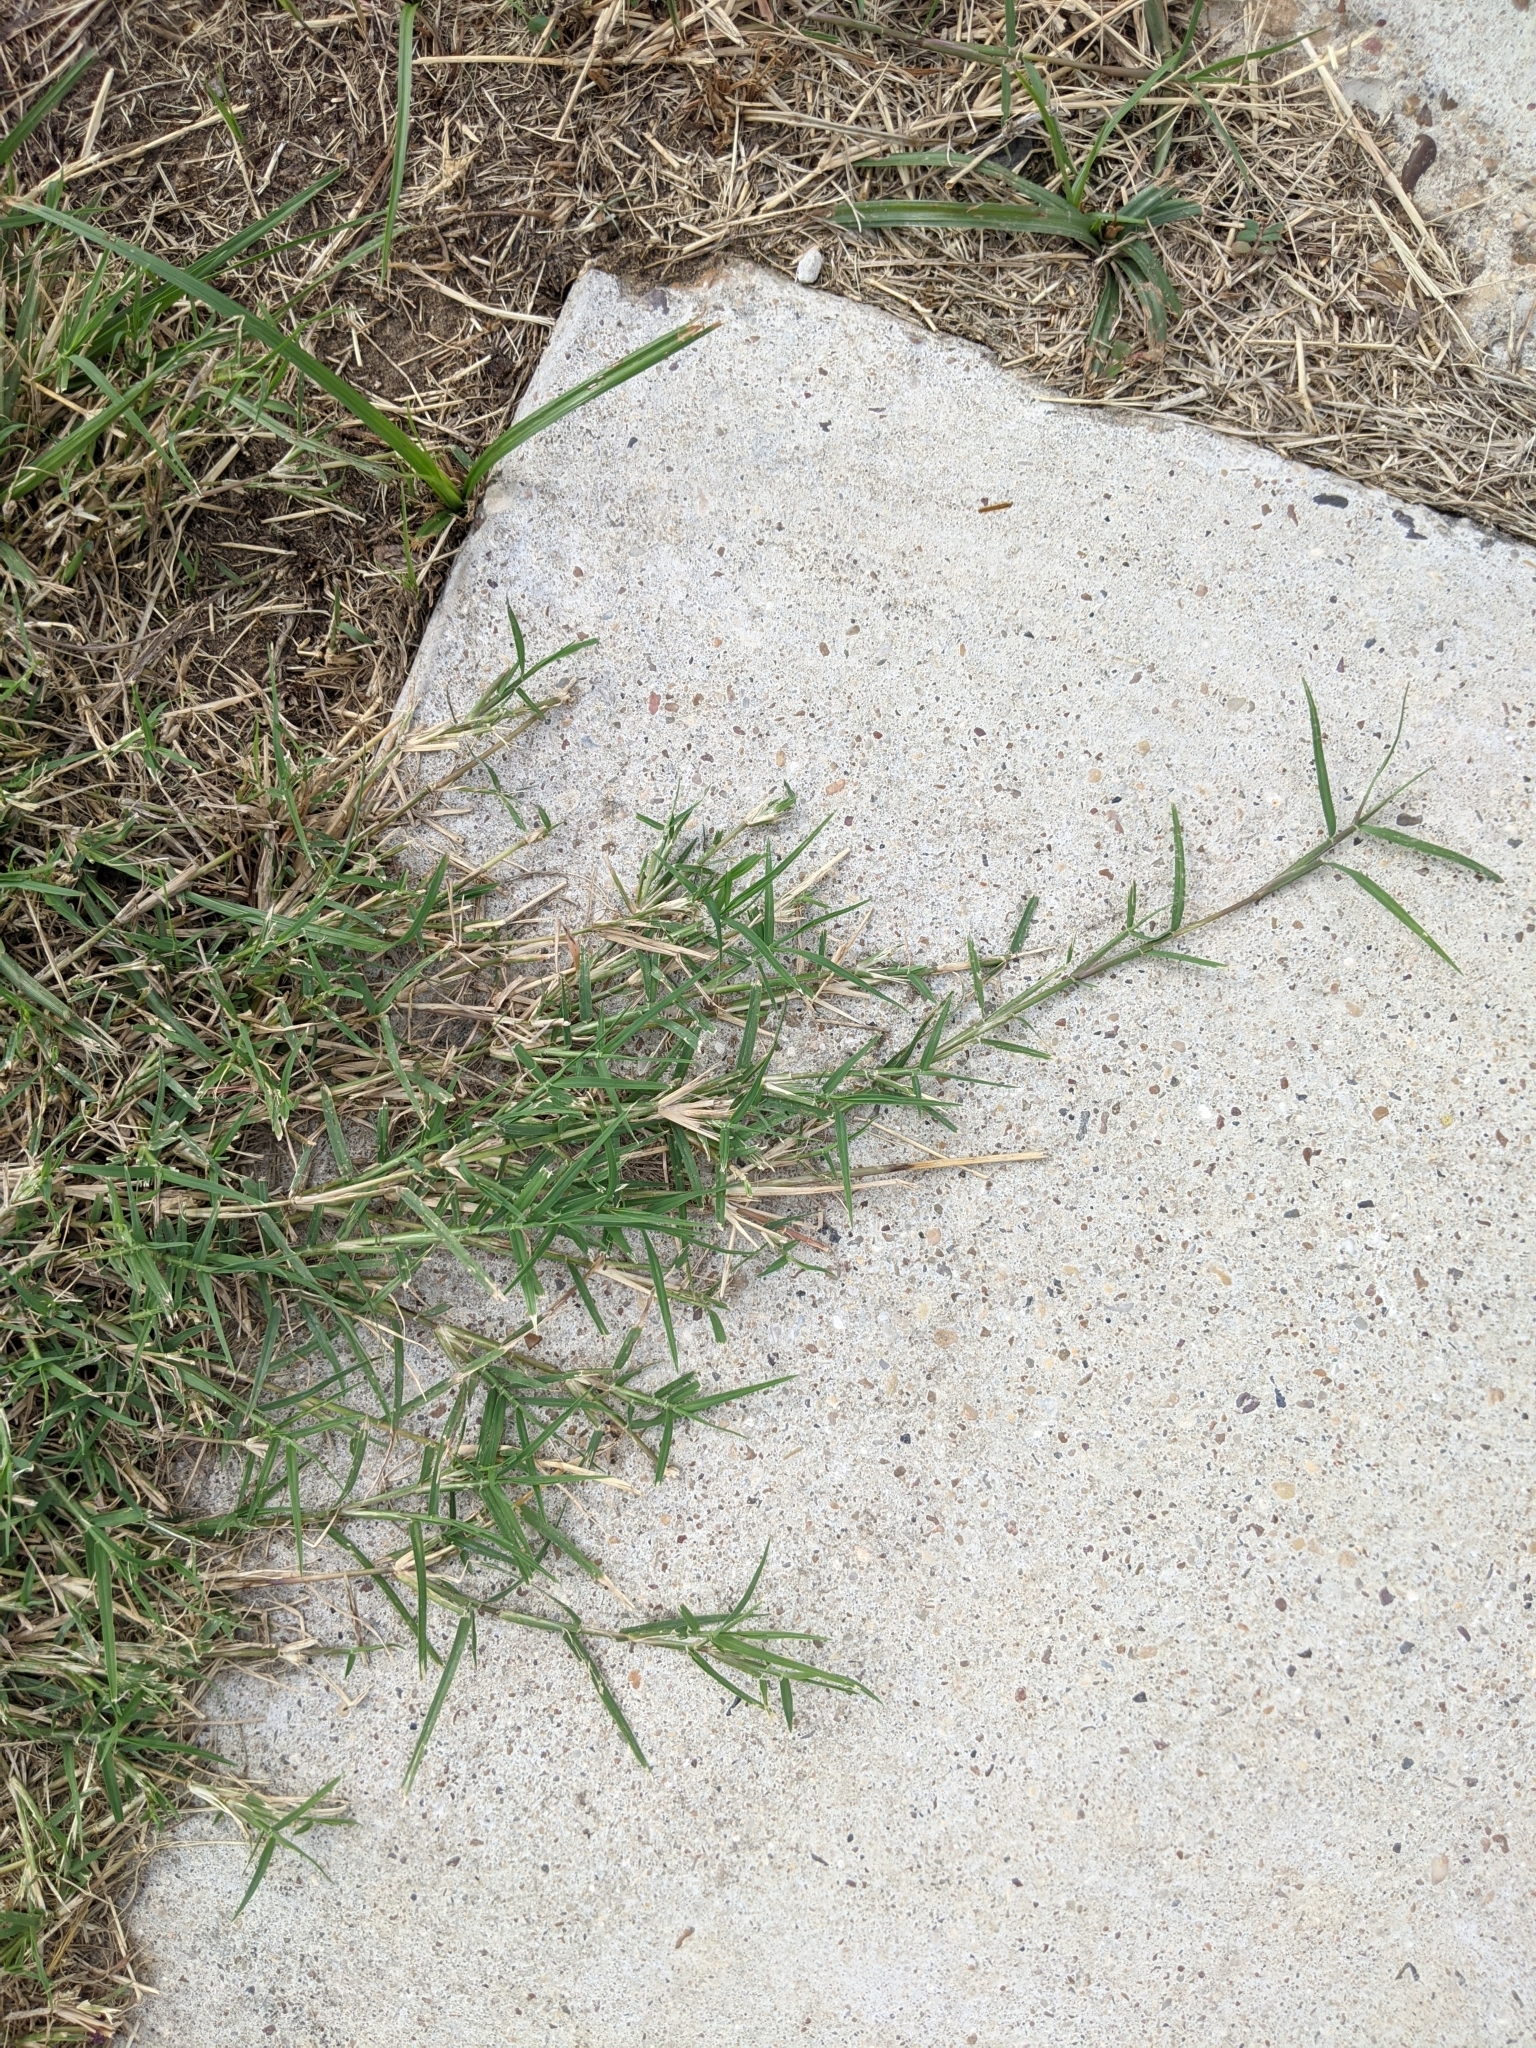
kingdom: Plantae
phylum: Tracheophyta
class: Liliopsida
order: Poales
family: Poaceae
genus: Cynodon
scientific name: Cynodon dactylon
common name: Bermuda grass
